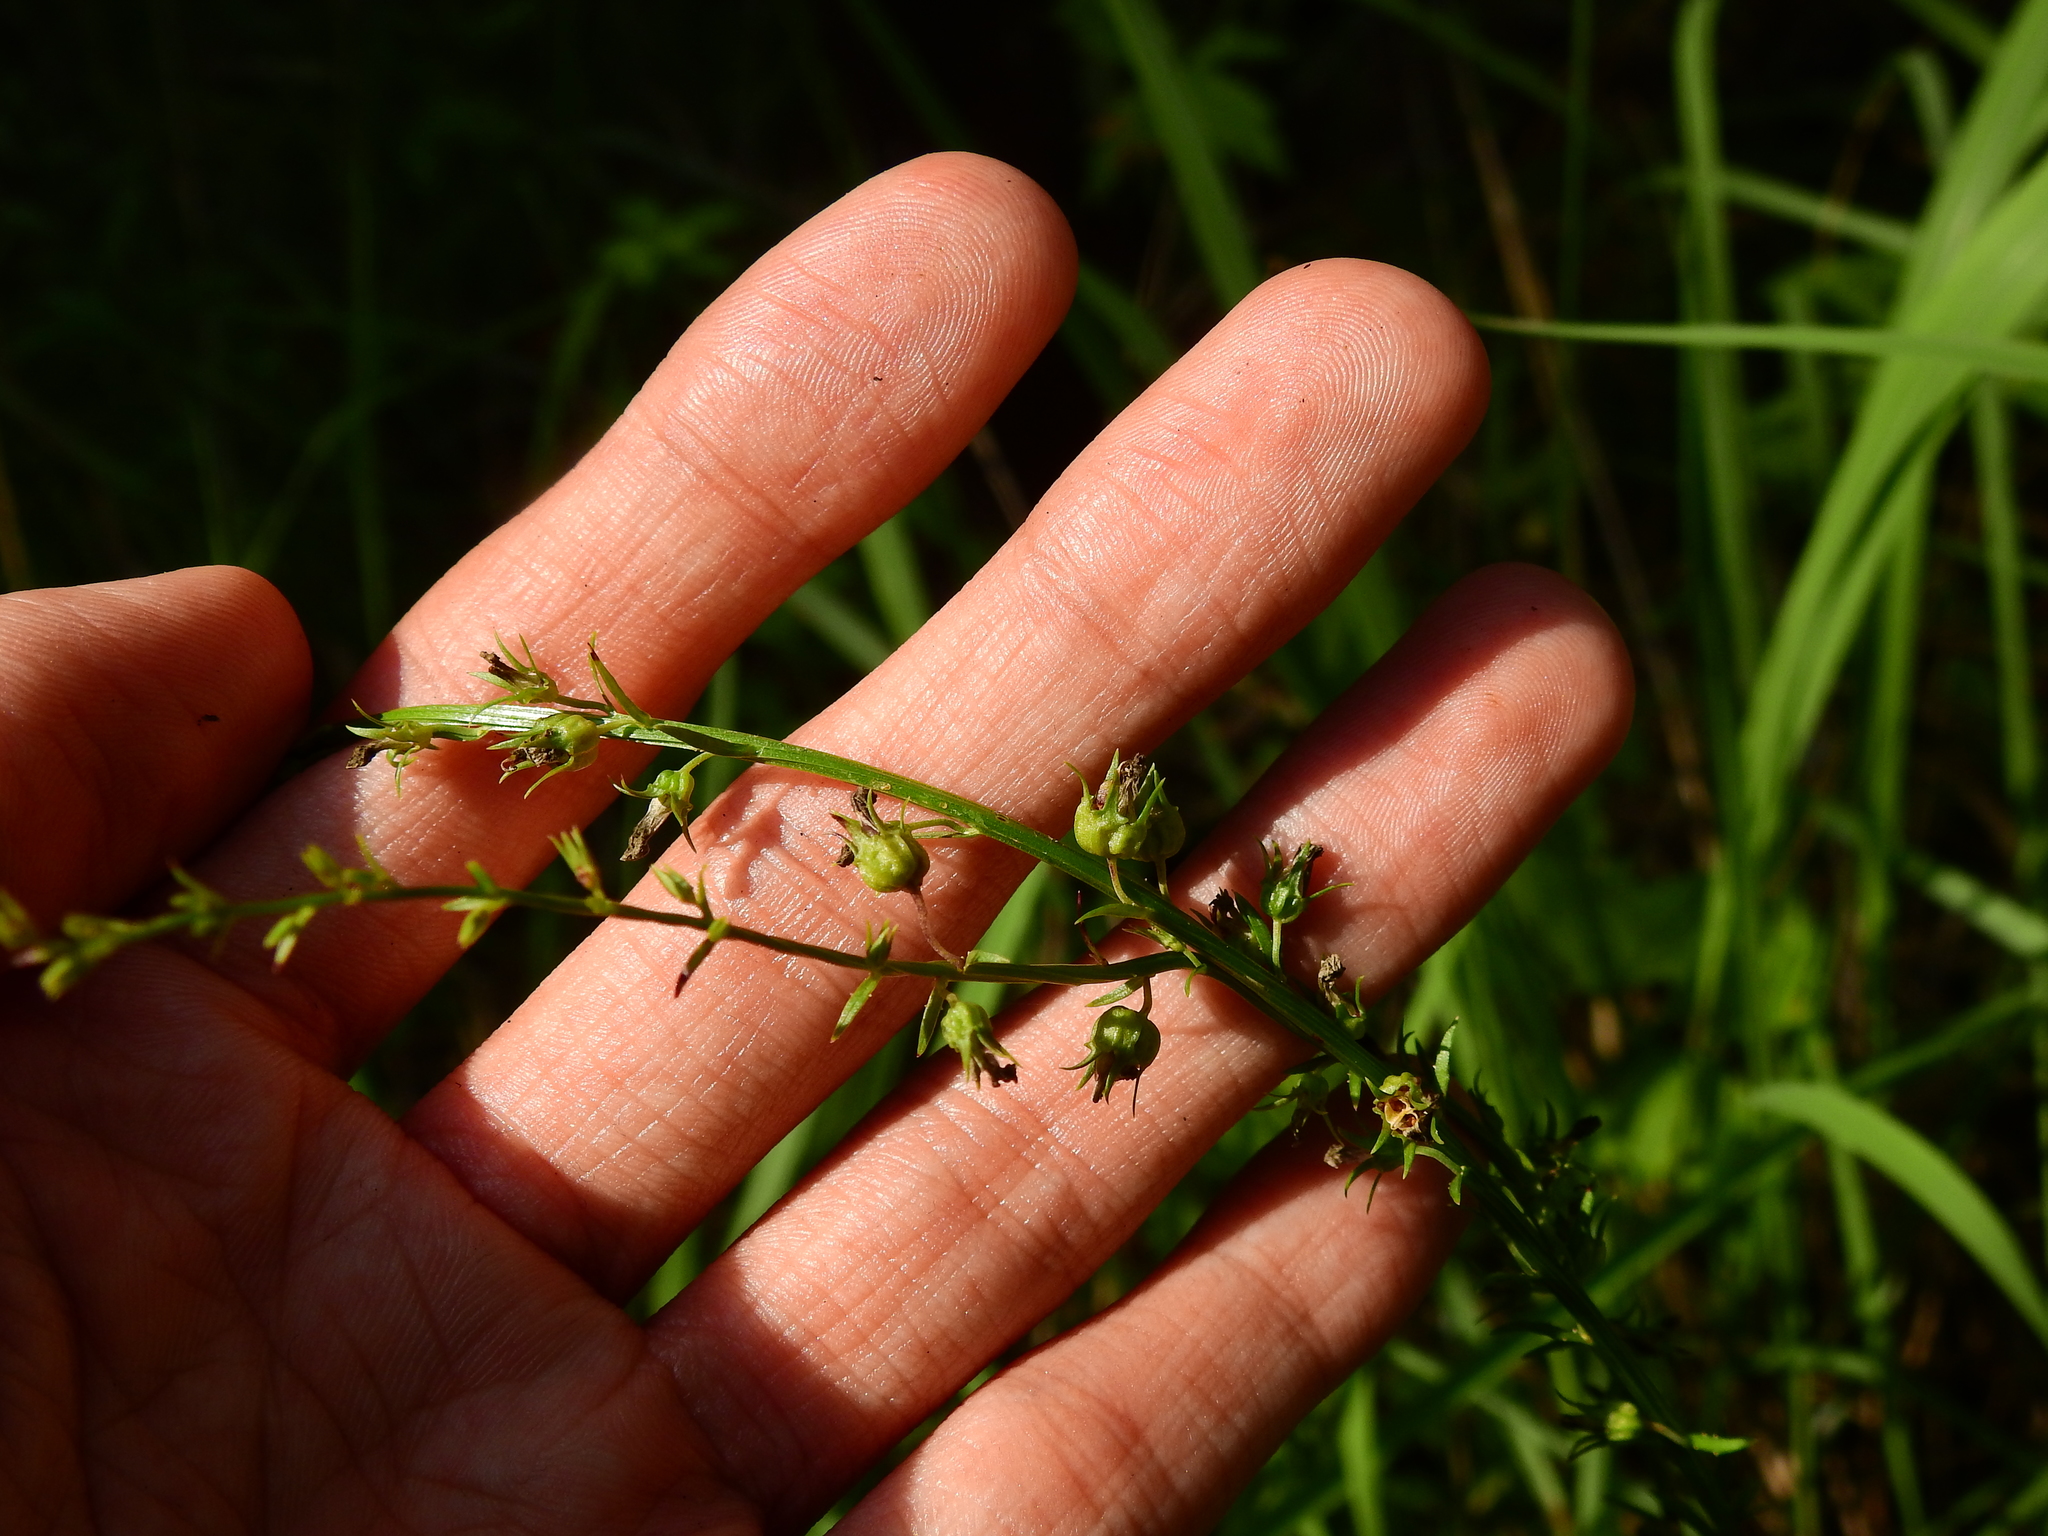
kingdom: Plantae
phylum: Tracheophyta
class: Magnoliopsida
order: Asterales
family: Campanulaceae
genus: Lobelia
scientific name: Lobelia spicata
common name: Pale-spike lobelia
